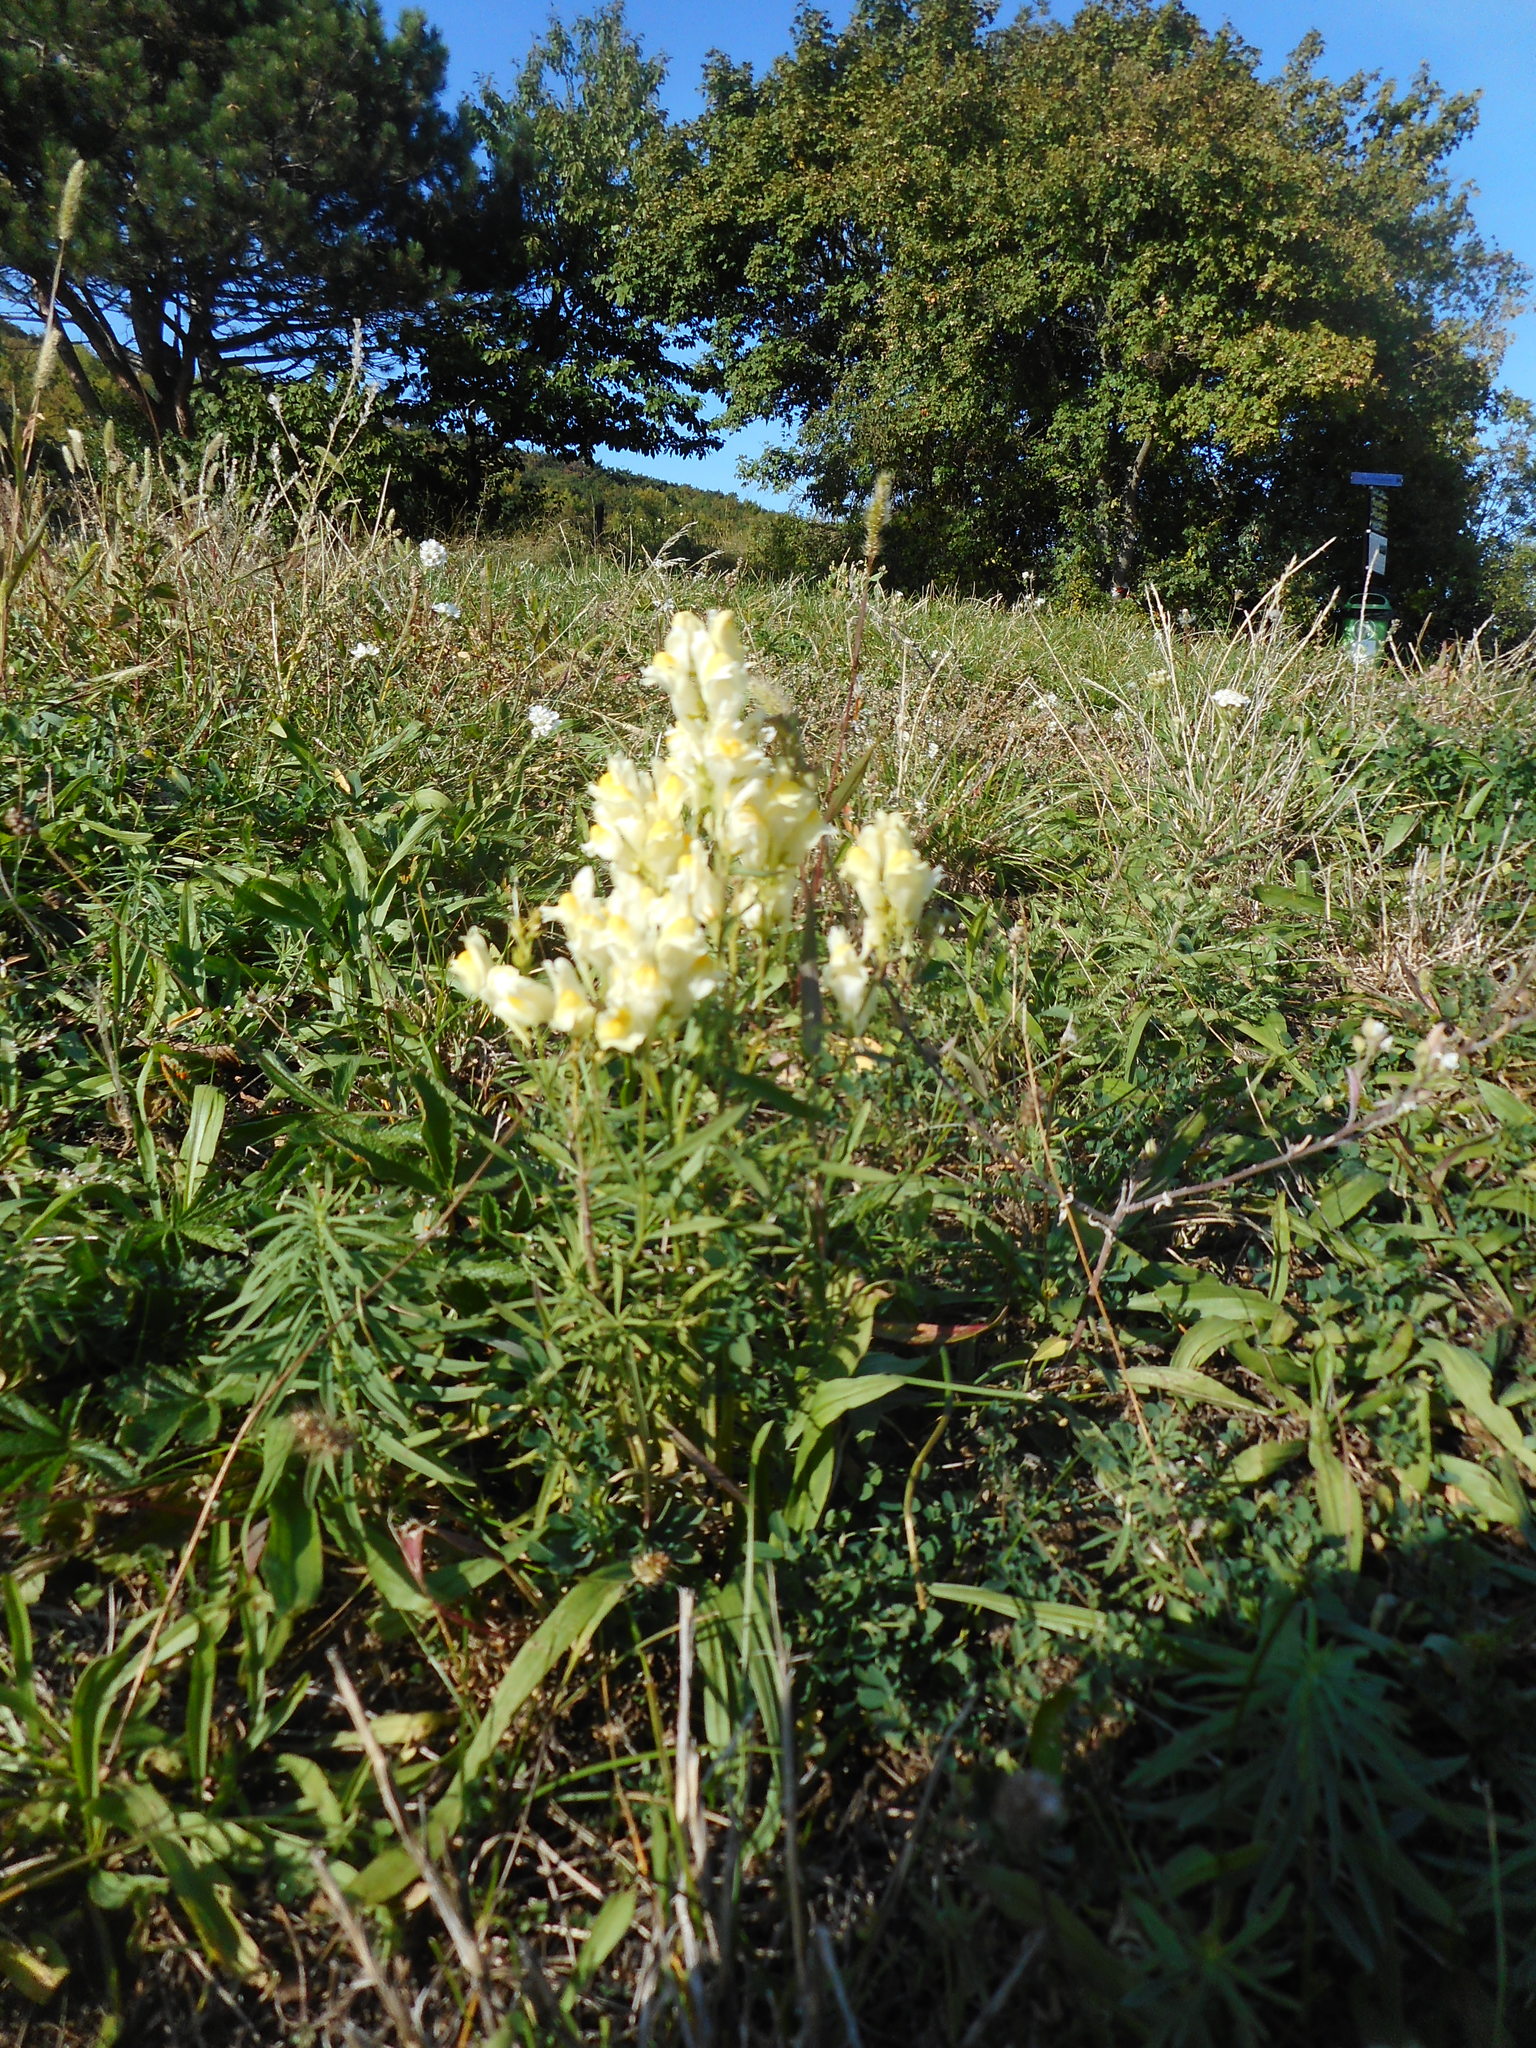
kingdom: Plantae
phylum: Tracheophyta
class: Magnoliopsida
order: Lamiales
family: Plantaginaceae
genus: Linaria
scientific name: Linaria vulgaris
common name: Butter and eggs
